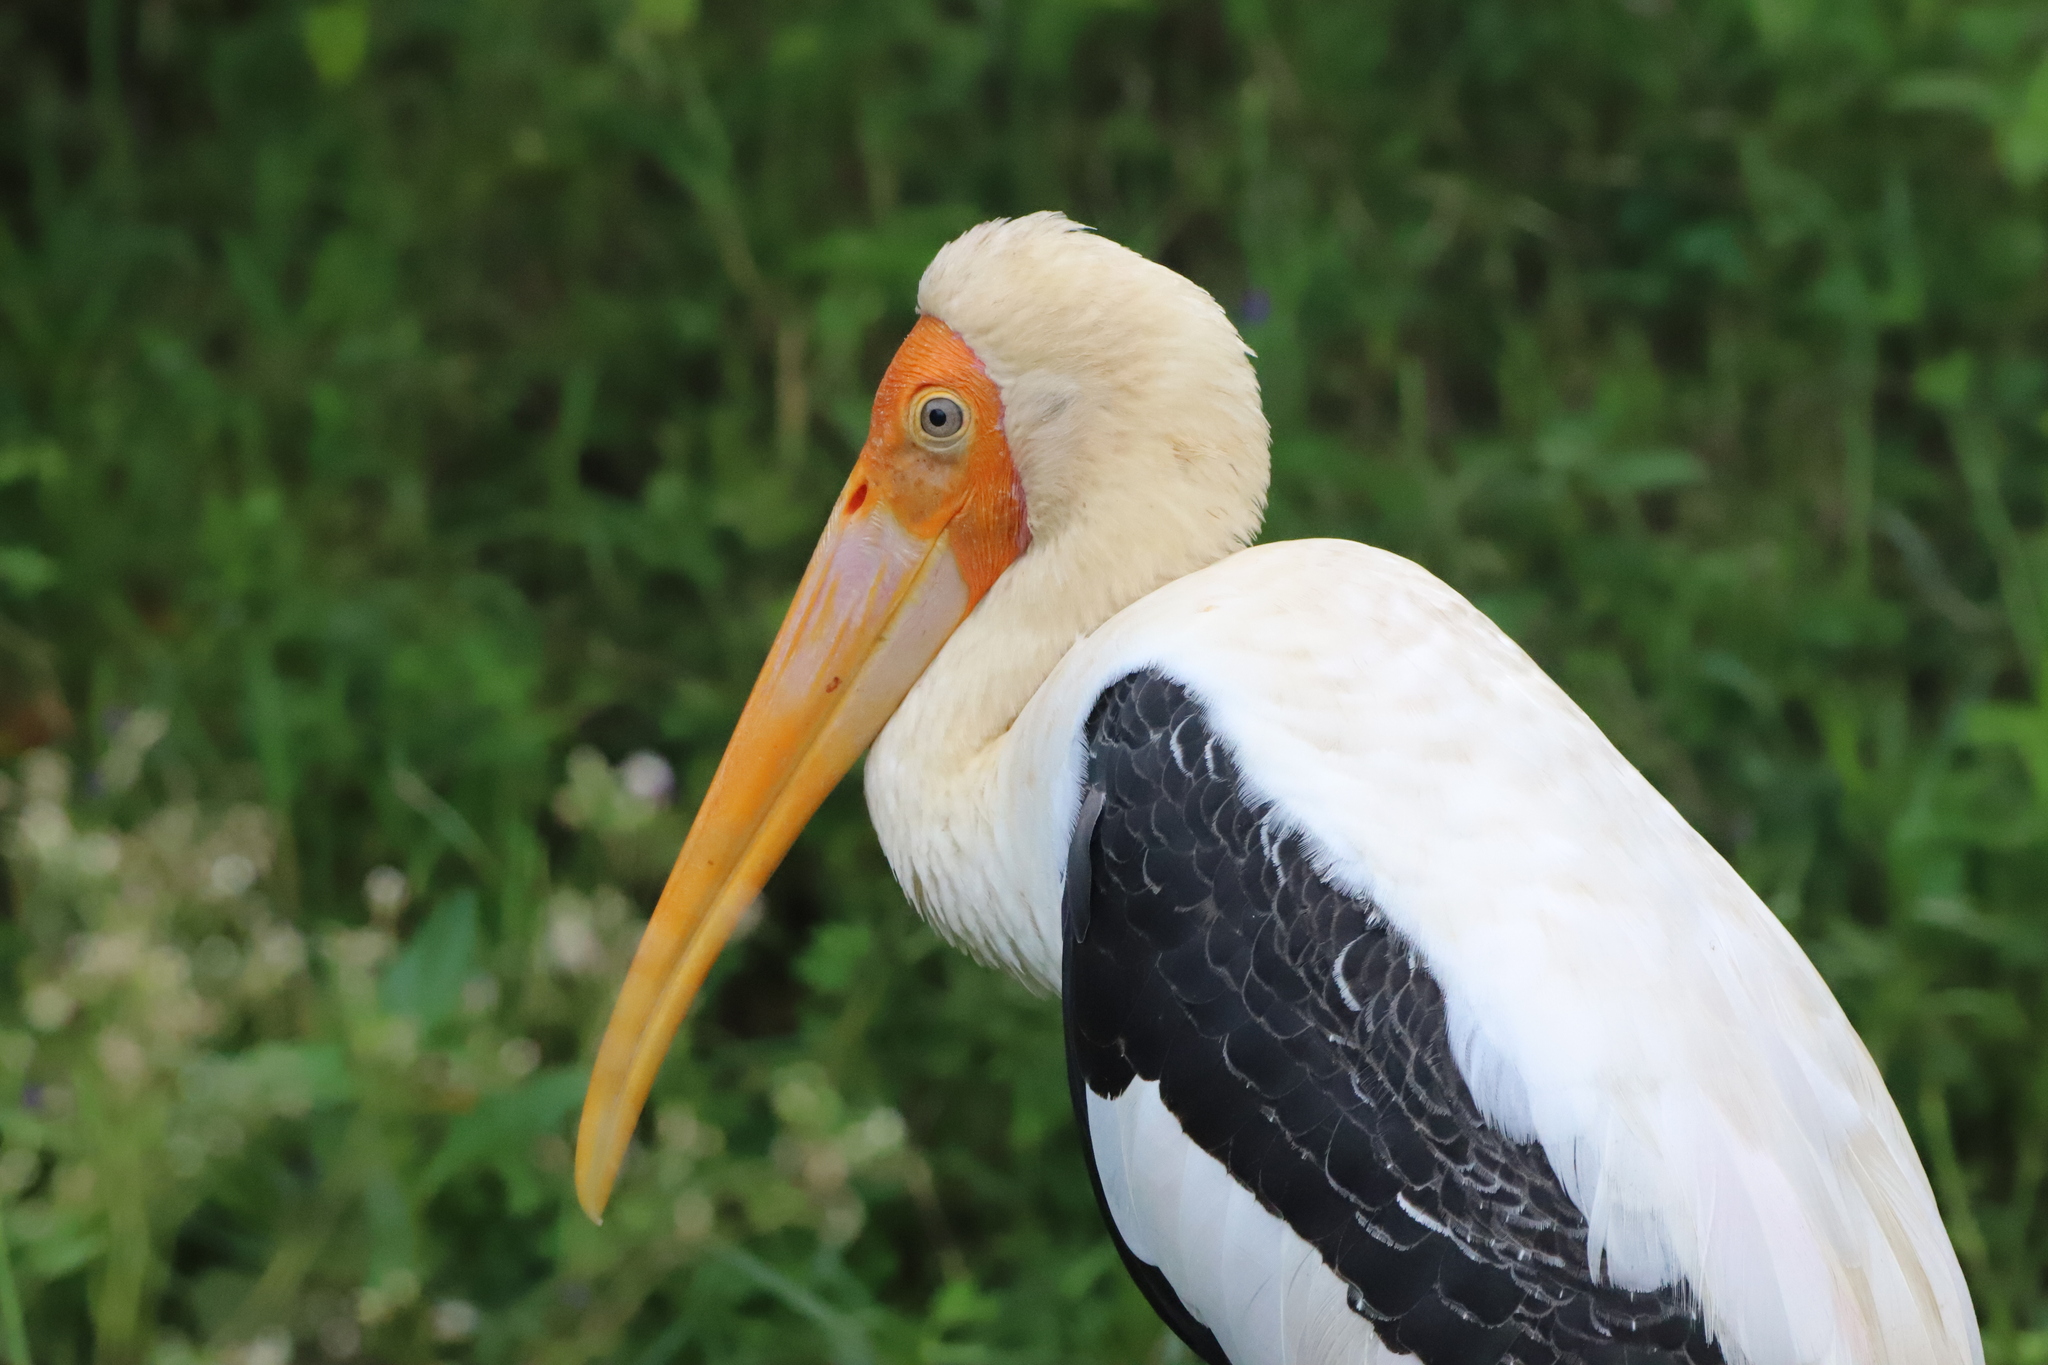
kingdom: Animalia
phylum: Chordata
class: Aves
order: Ciconiiformes
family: Ciconiidae
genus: Mycteria
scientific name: Mycteria leucocephala
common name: Painted stork
